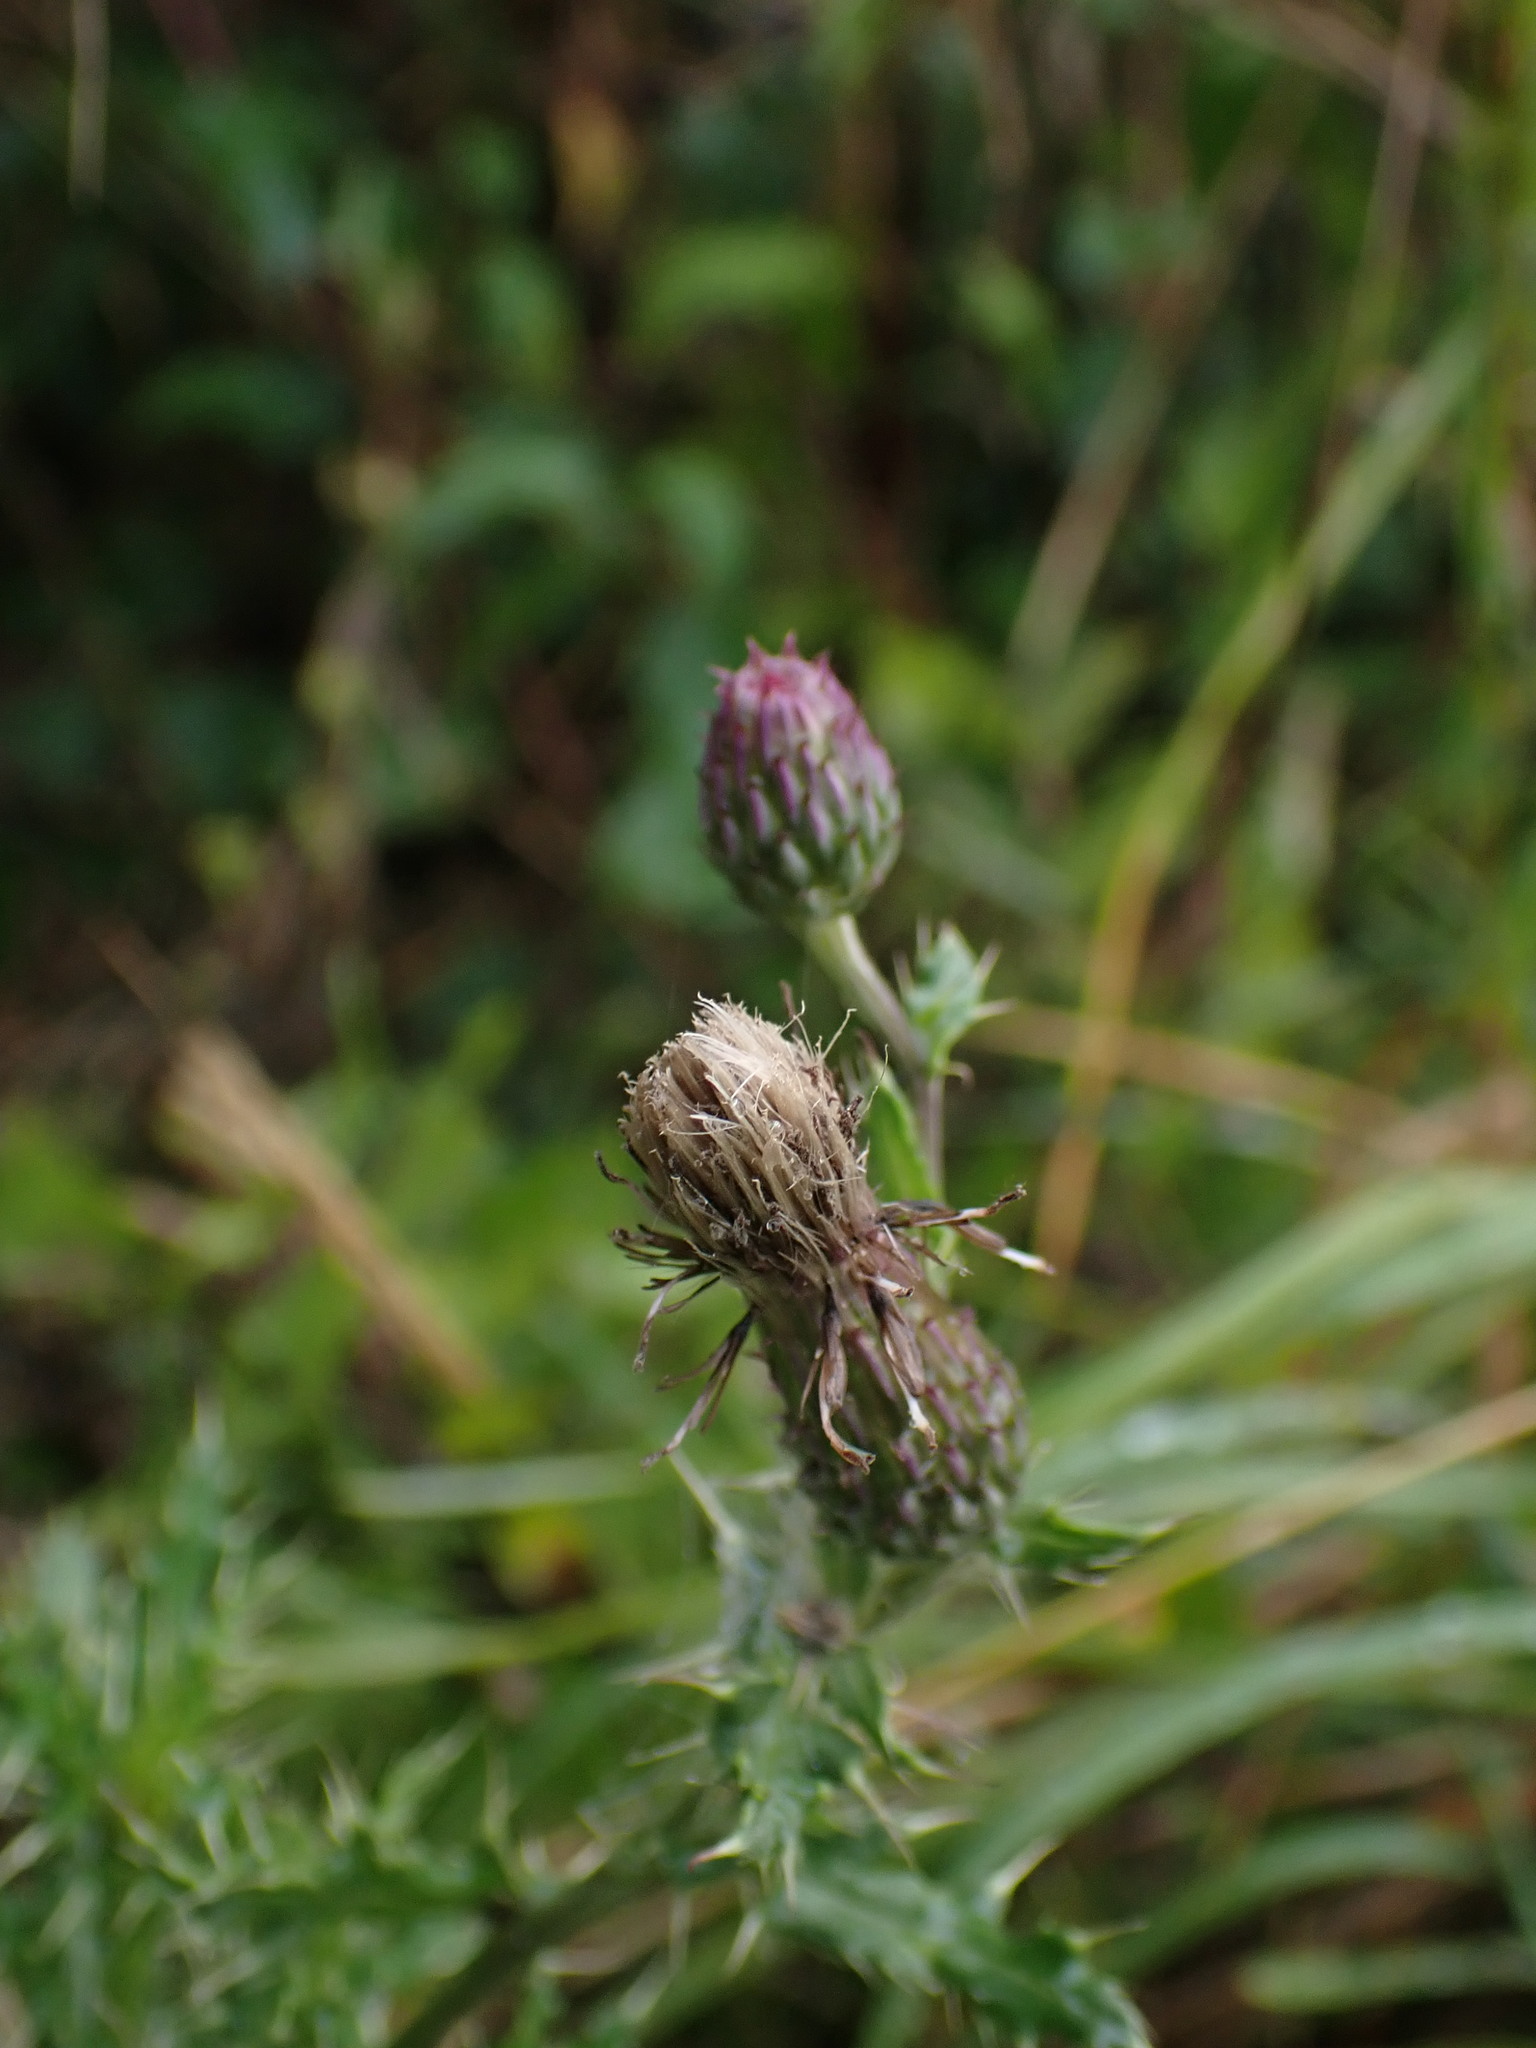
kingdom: Plantae
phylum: Tracheophyta
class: Magnoliopsida
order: Asterales
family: Asteraceae
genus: Cirsium
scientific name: Cirsium arvense
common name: Creeping thistle
